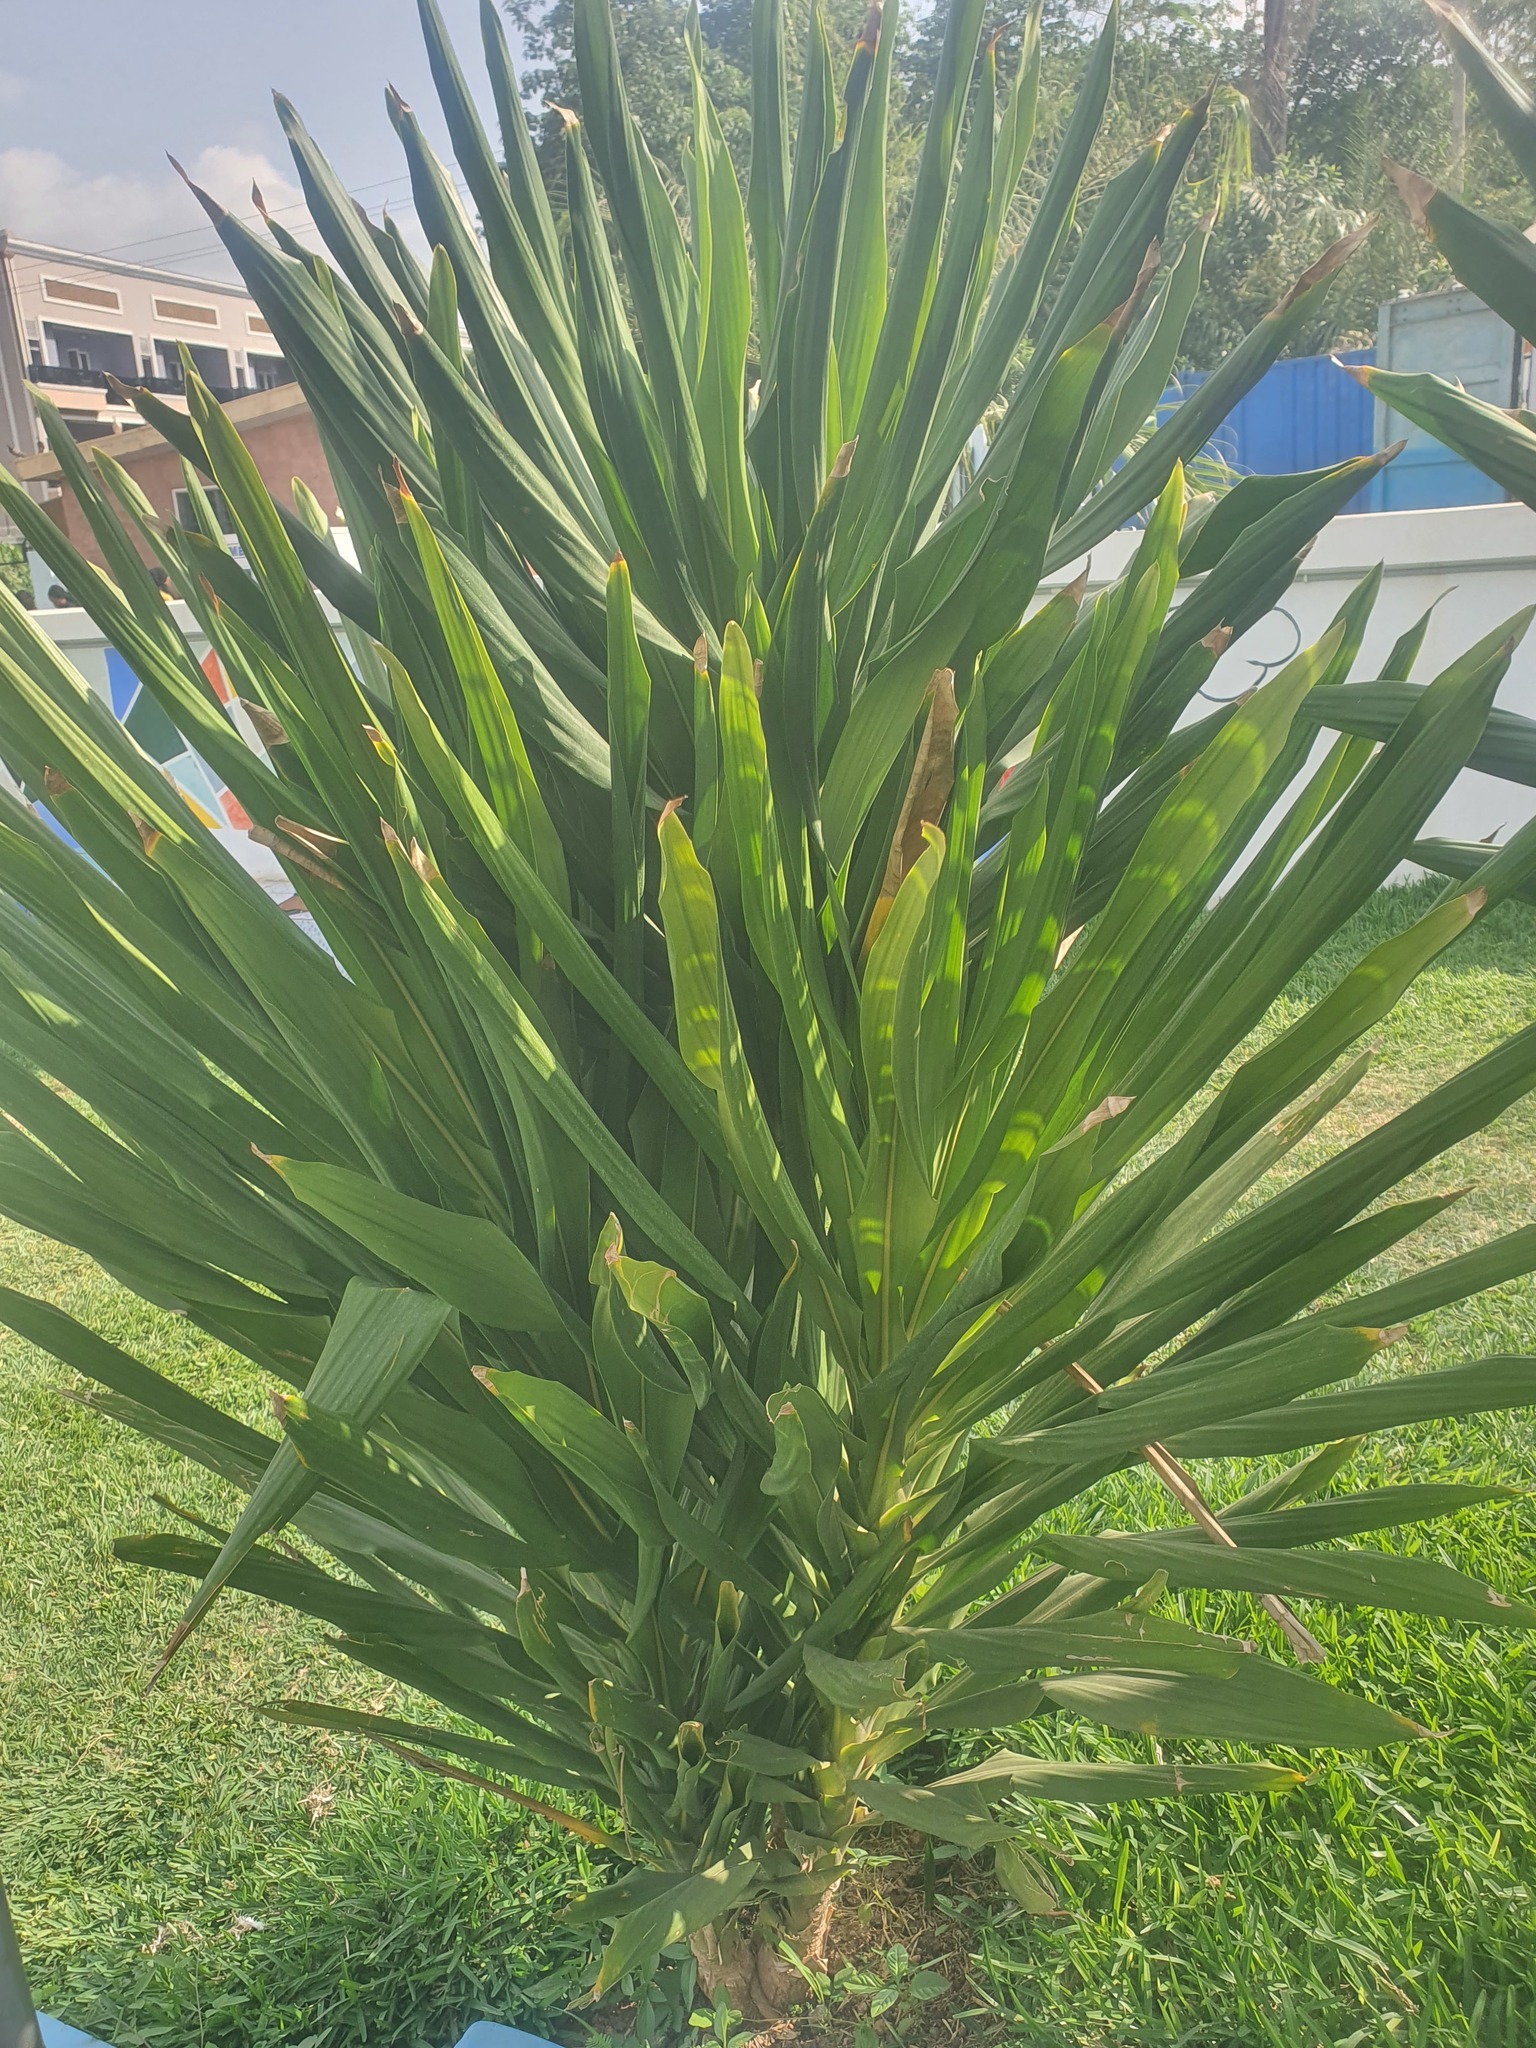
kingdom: Plantae
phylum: Tracheophyta
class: Liliopsida
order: Asparagales
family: Asparagaceae
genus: Yucca
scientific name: Yucca gigantea
